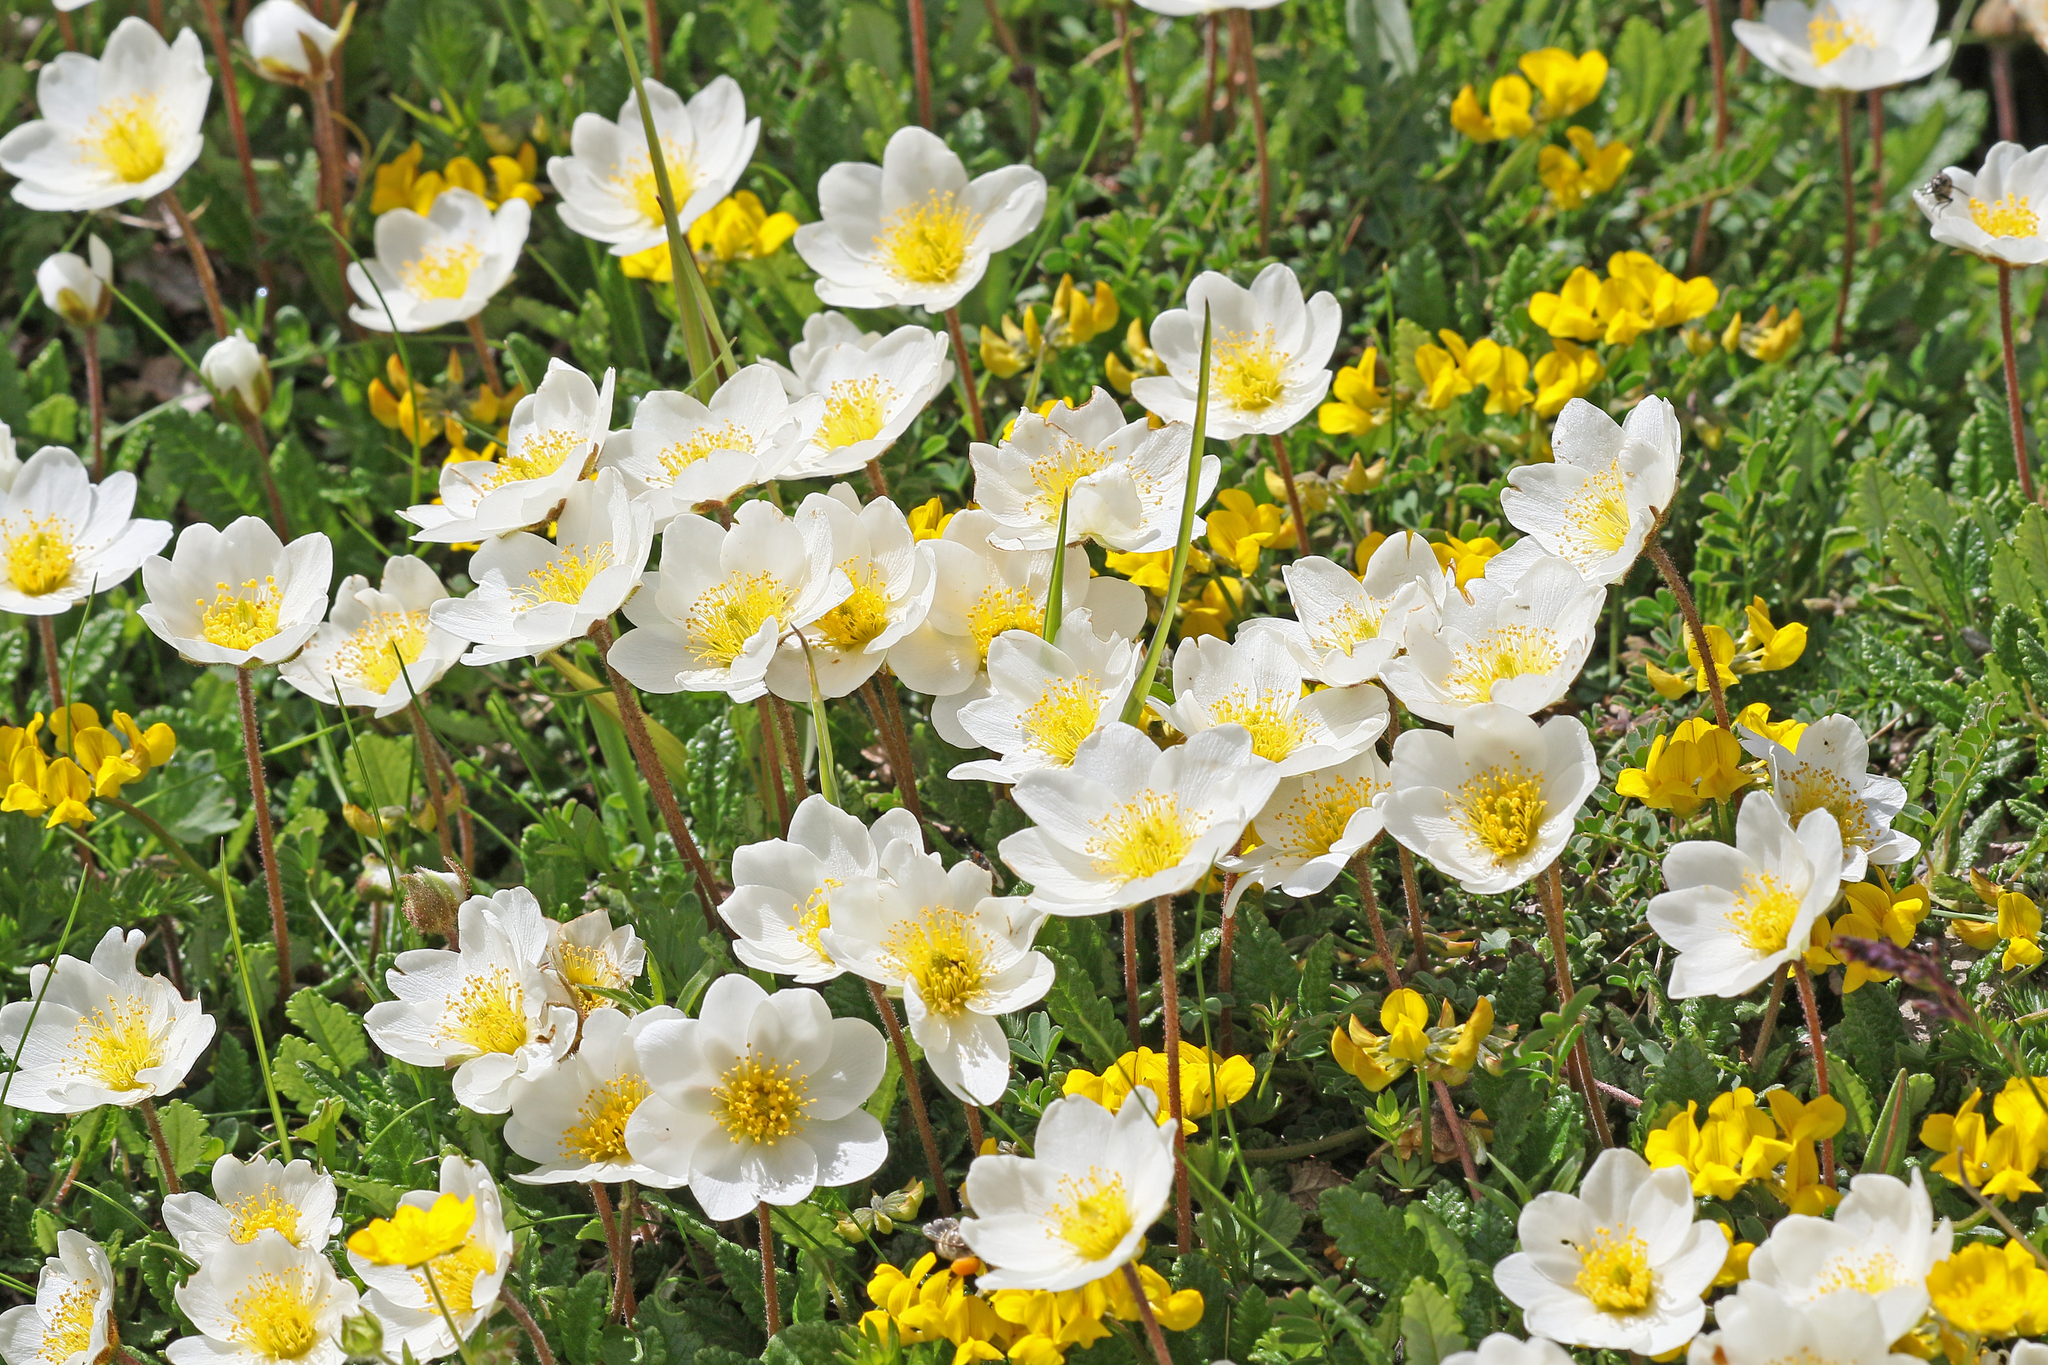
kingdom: Plantae
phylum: Tracheophyta
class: Magnoliopsida
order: Rosales
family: Rosaceae
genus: Dryas
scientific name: Dryas octopetala
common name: Eight-petal mountain-avens
